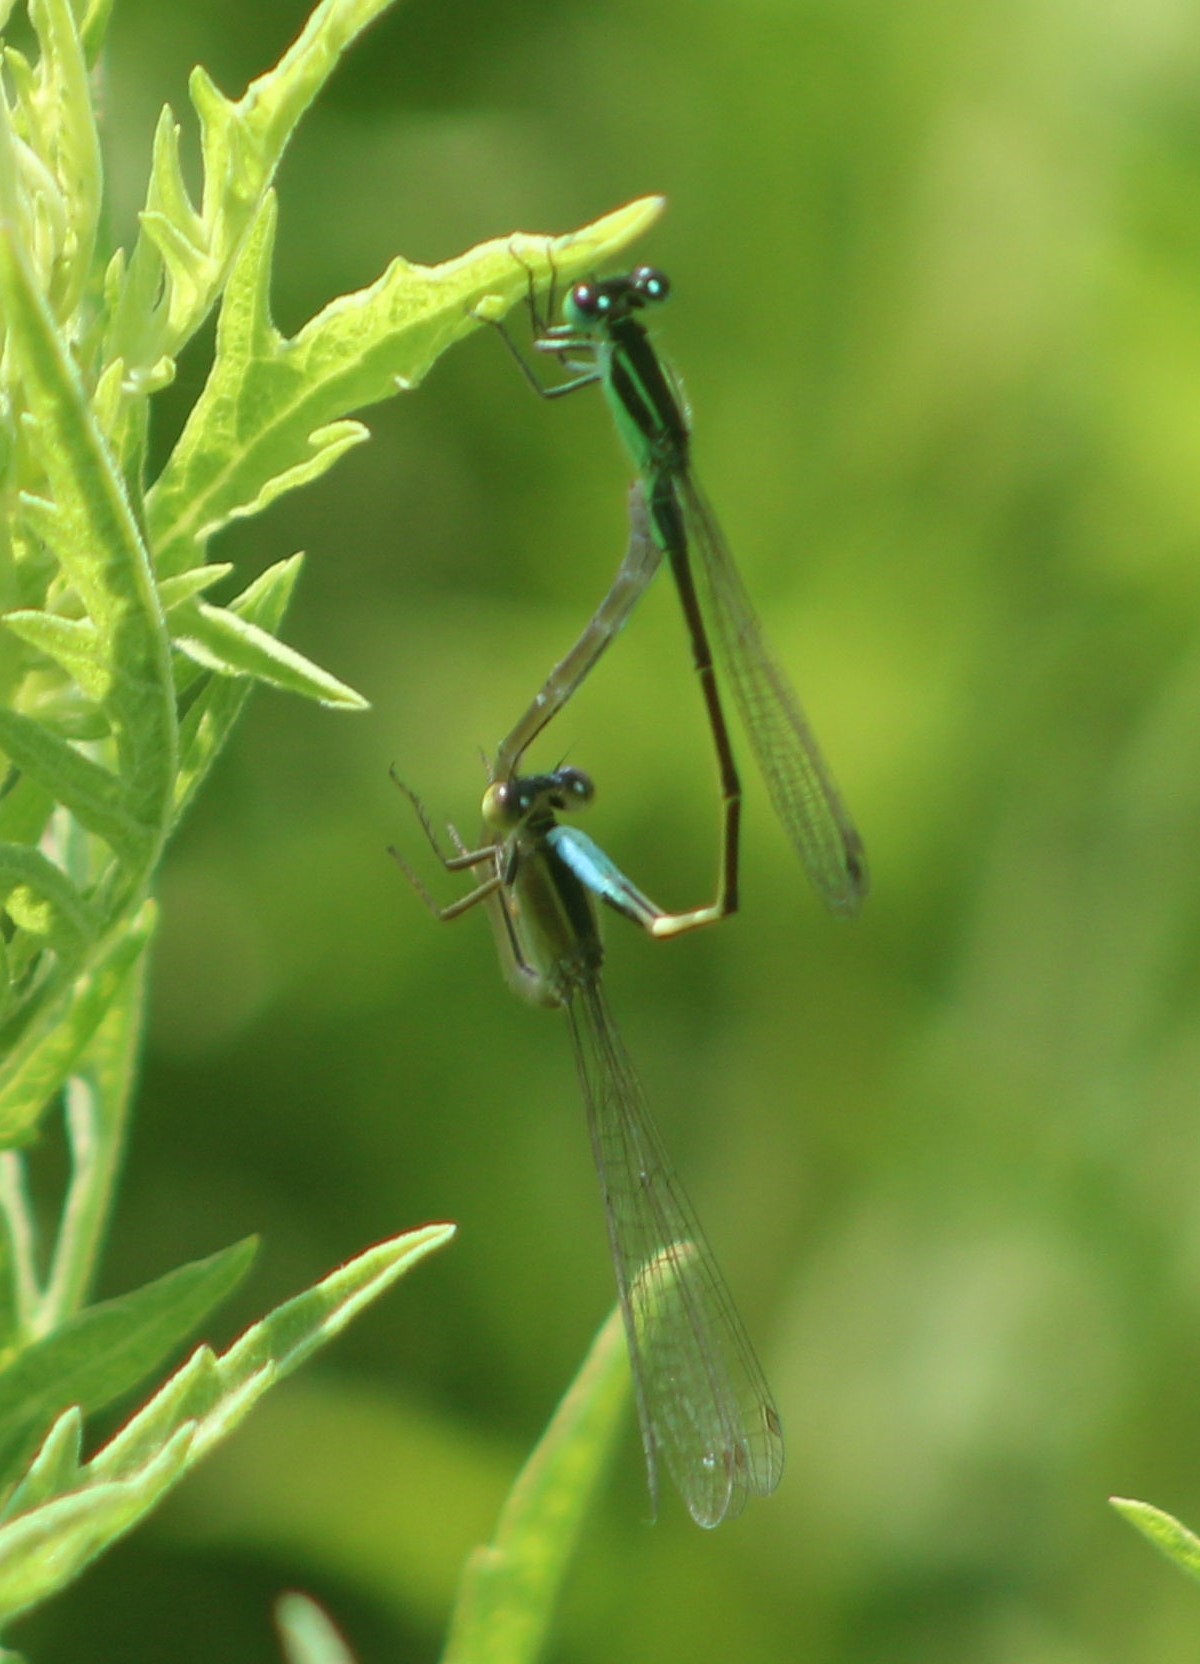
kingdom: Animalia
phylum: Arthropoda
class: Insecta
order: Odonata
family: Coenagrionidae
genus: Ischnura
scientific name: Ischnura ramburii
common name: Rambur's forktail
